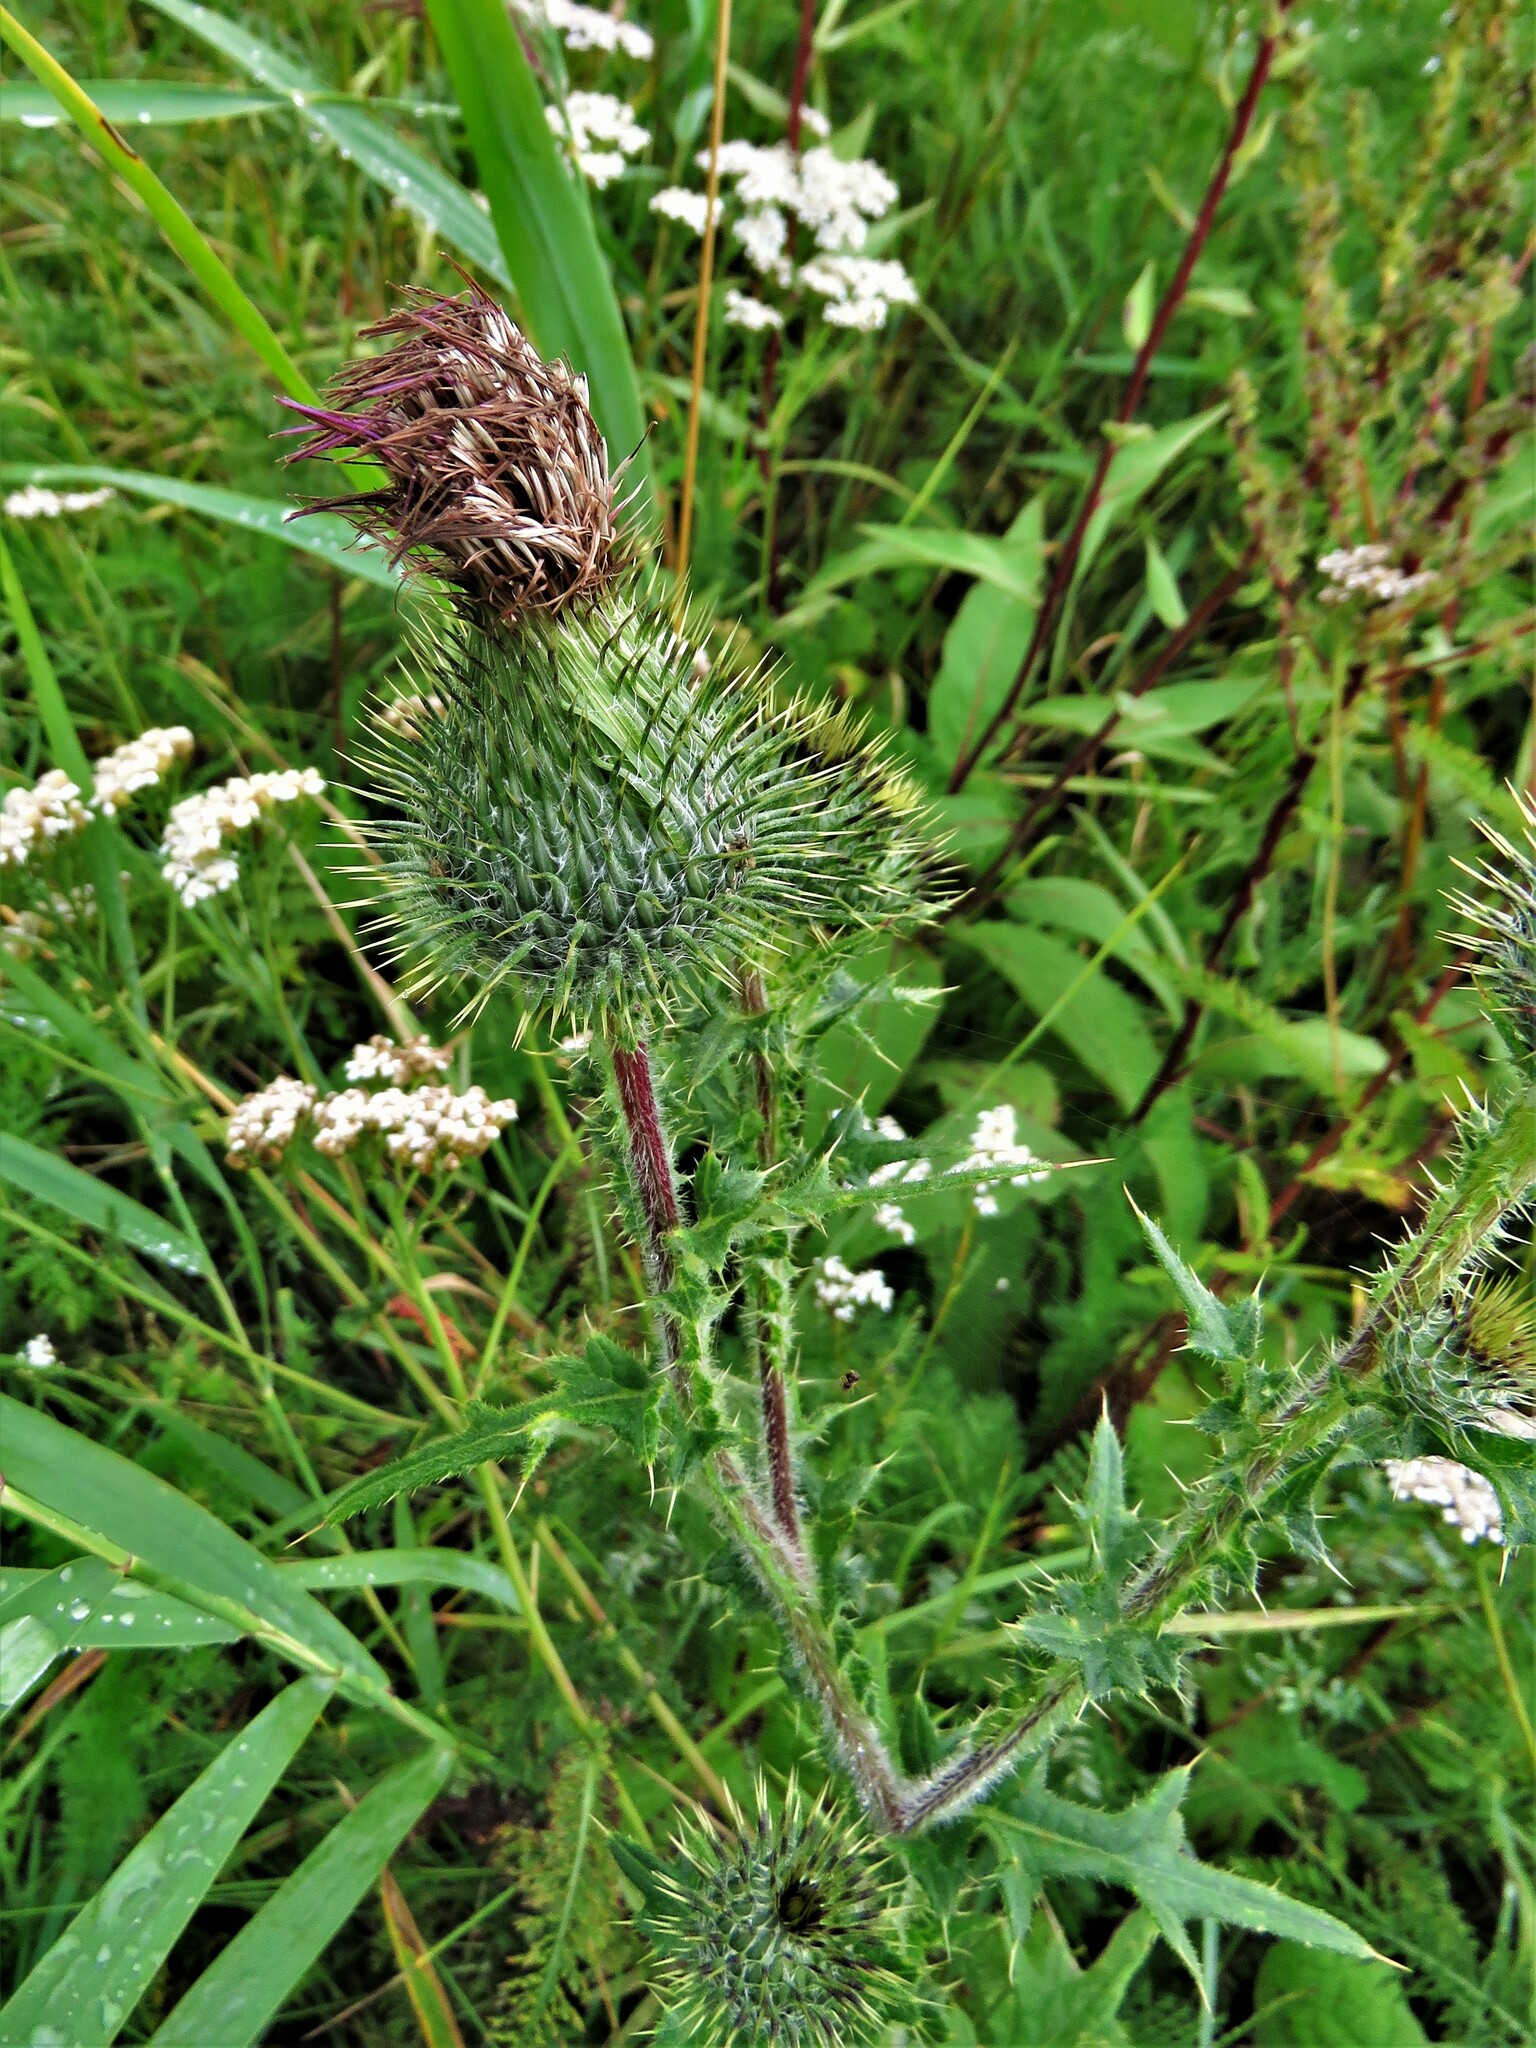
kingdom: Plantae
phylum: Tracheophyta
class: Magnoliopsida
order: Asterales
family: Asteraceae
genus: Cirsium
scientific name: Cirsium vulgare
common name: Bull thistle
